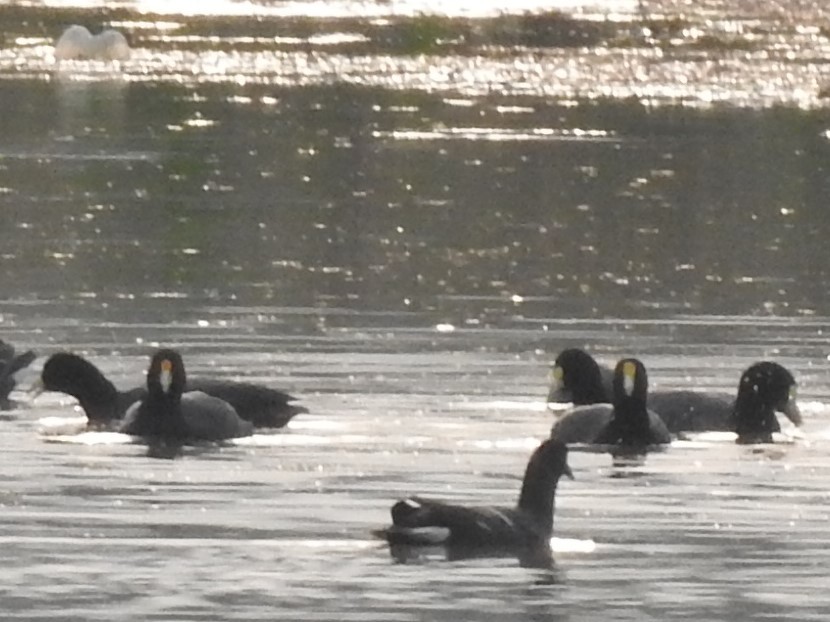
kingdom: Animalia
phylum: Chordata
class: Aves
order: Gruiformes
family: Rallidae
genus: Fulica
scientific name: Fulica leucoptera
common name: White-winged coot
